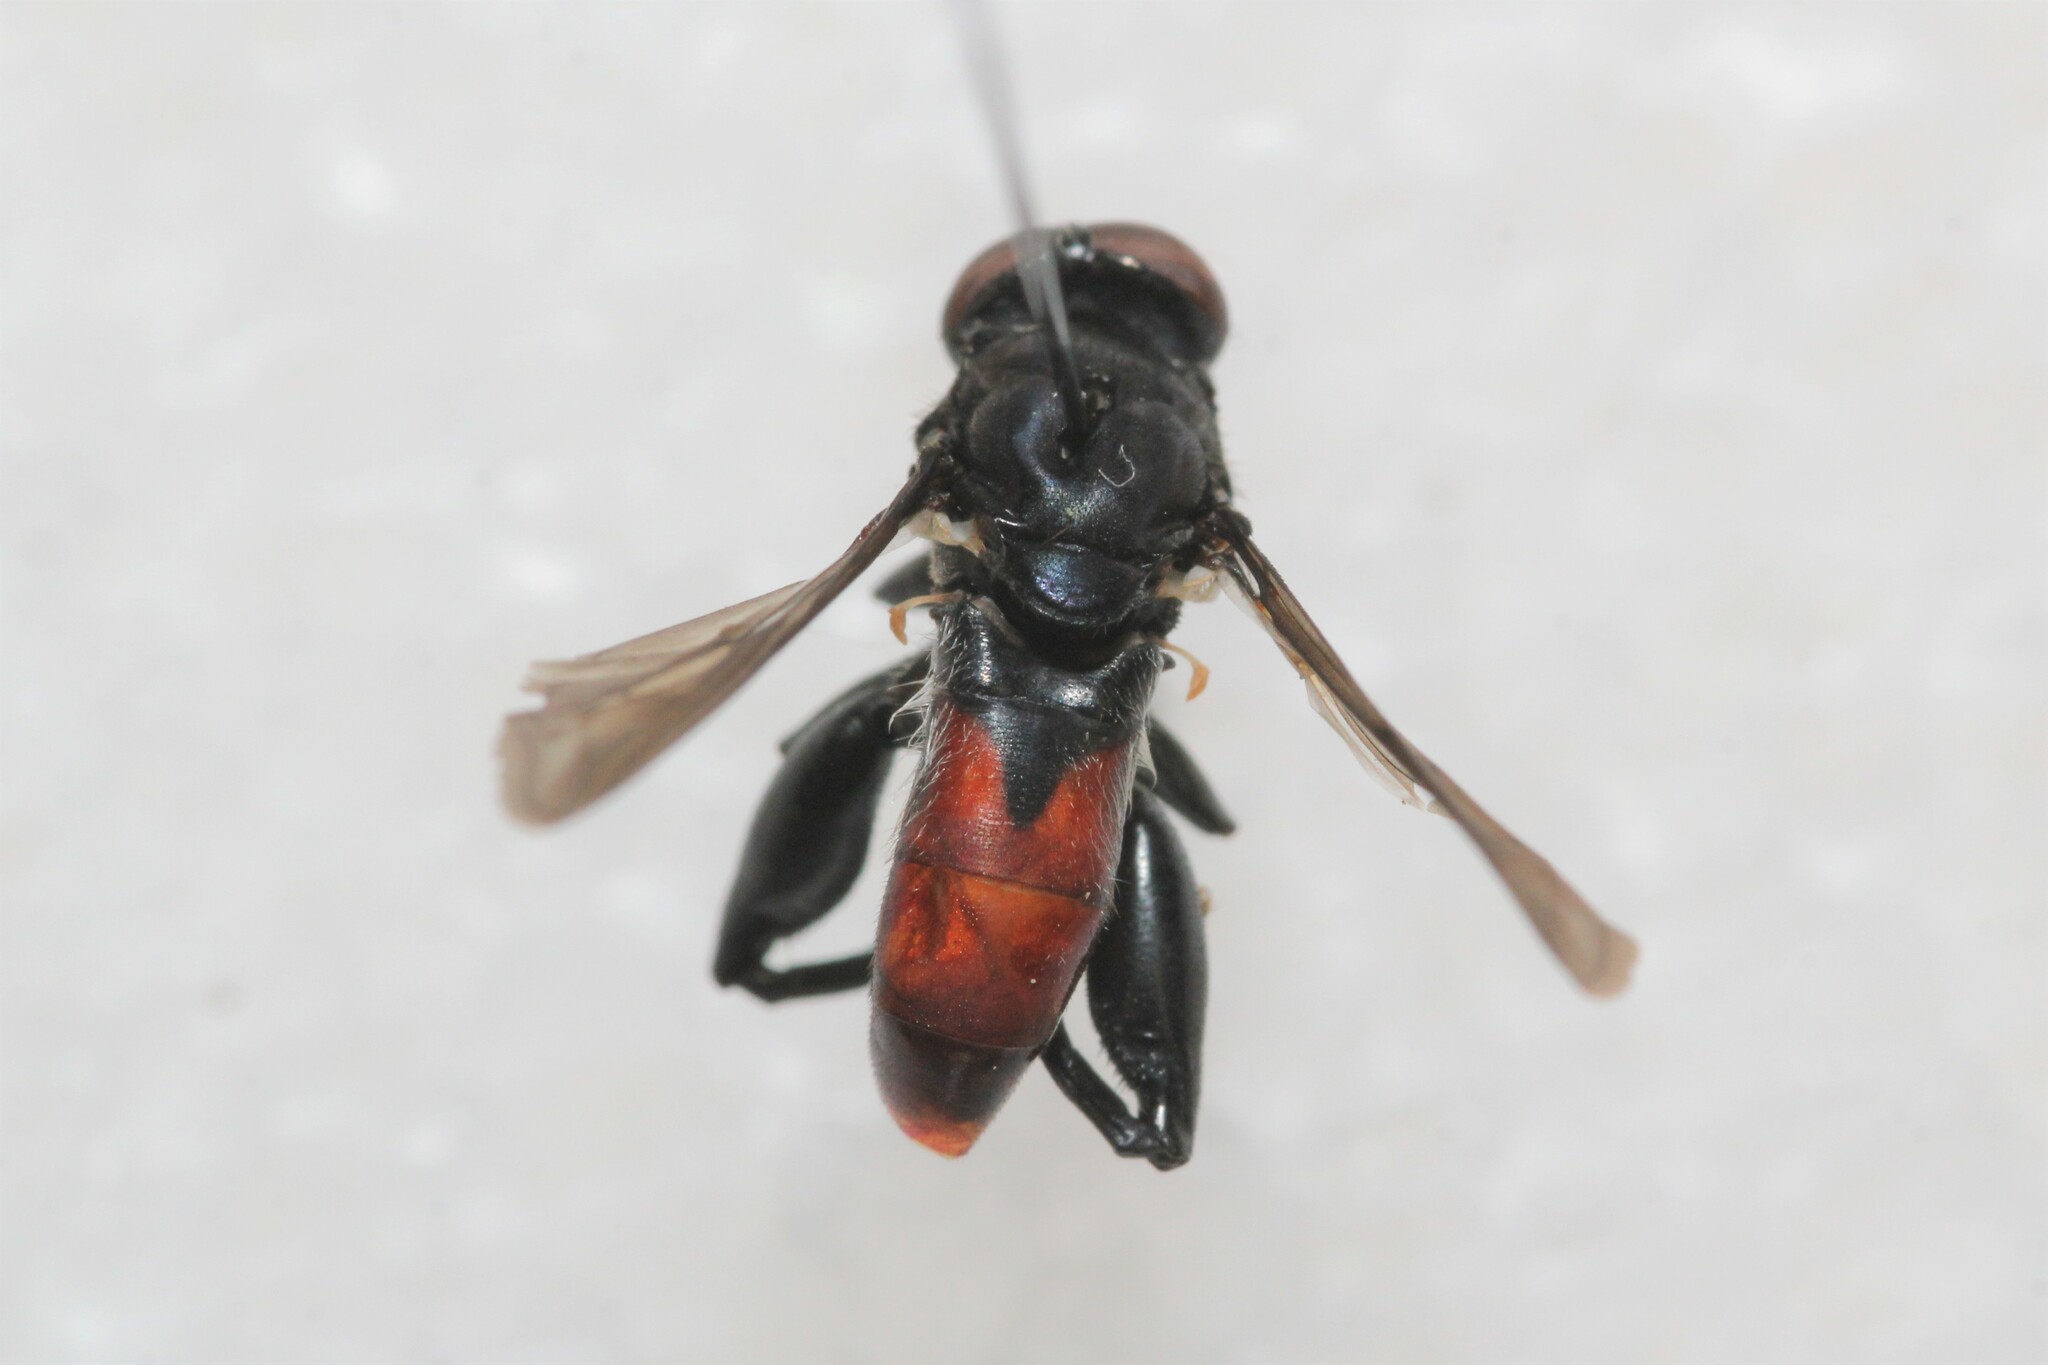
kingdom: Animalia
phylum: Arthropoda
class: Insecta
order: Diptera
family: Syrphidae
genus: Chalcosyrphus
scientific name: Chalcosyrphus piger
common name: Short-haired leafwalker
